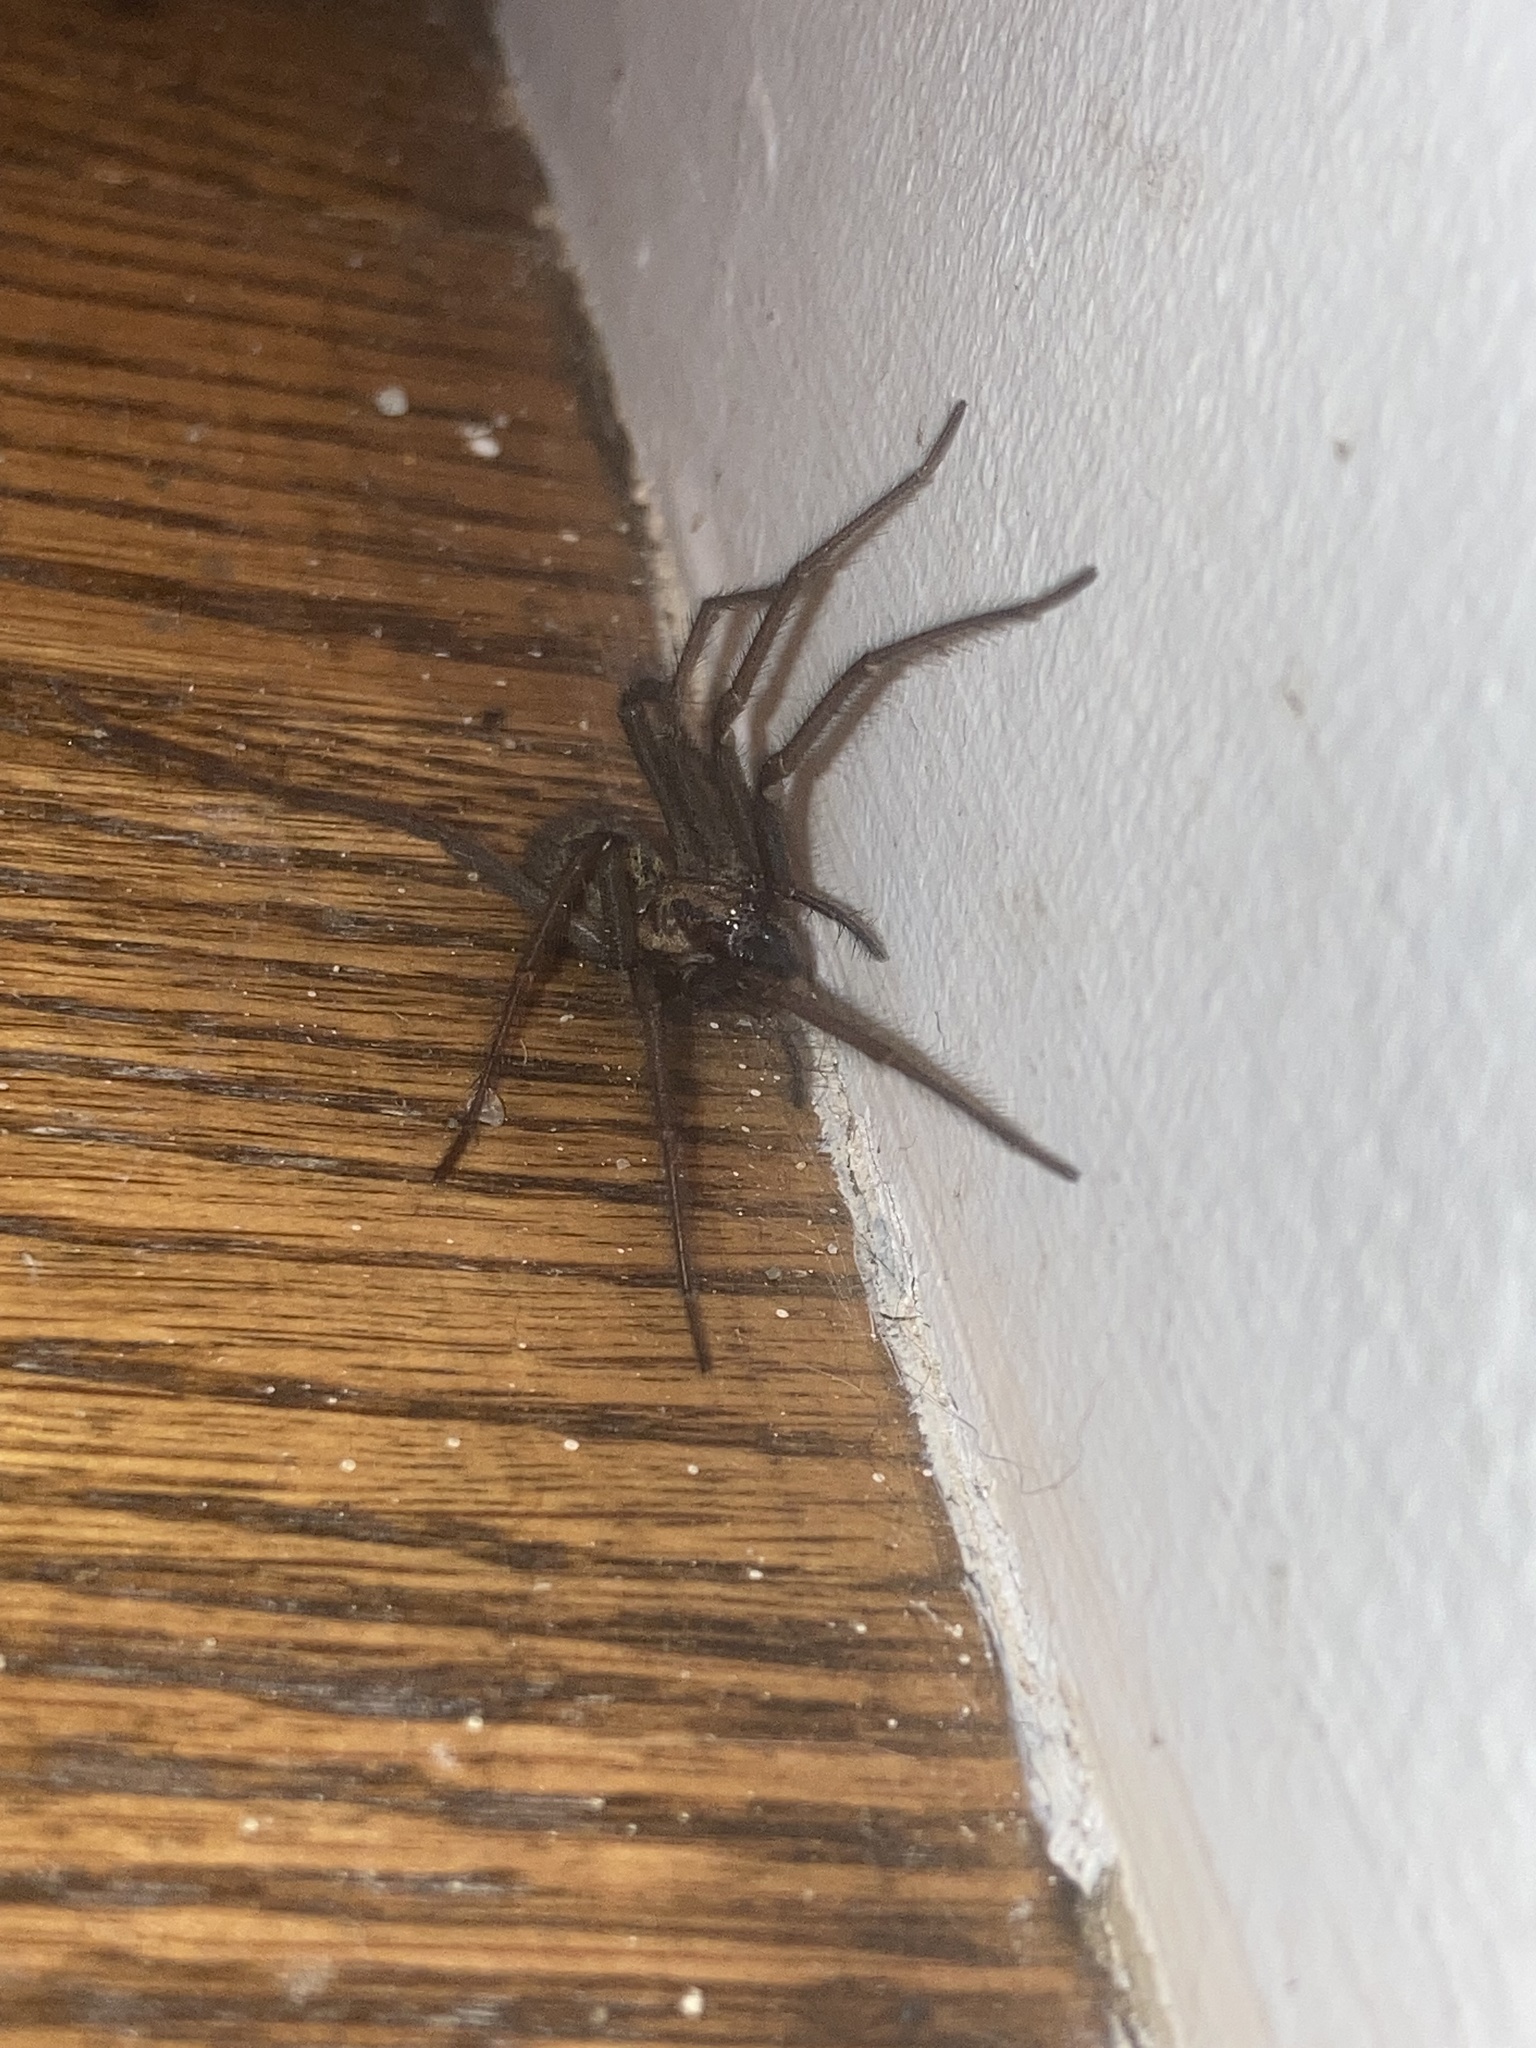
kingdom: Animalia
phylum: Arthropoda
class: Arachnida
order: Araneae
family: Agelenidae
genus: Eratigena
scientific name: Eratigena duellica
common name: Giant house spider
